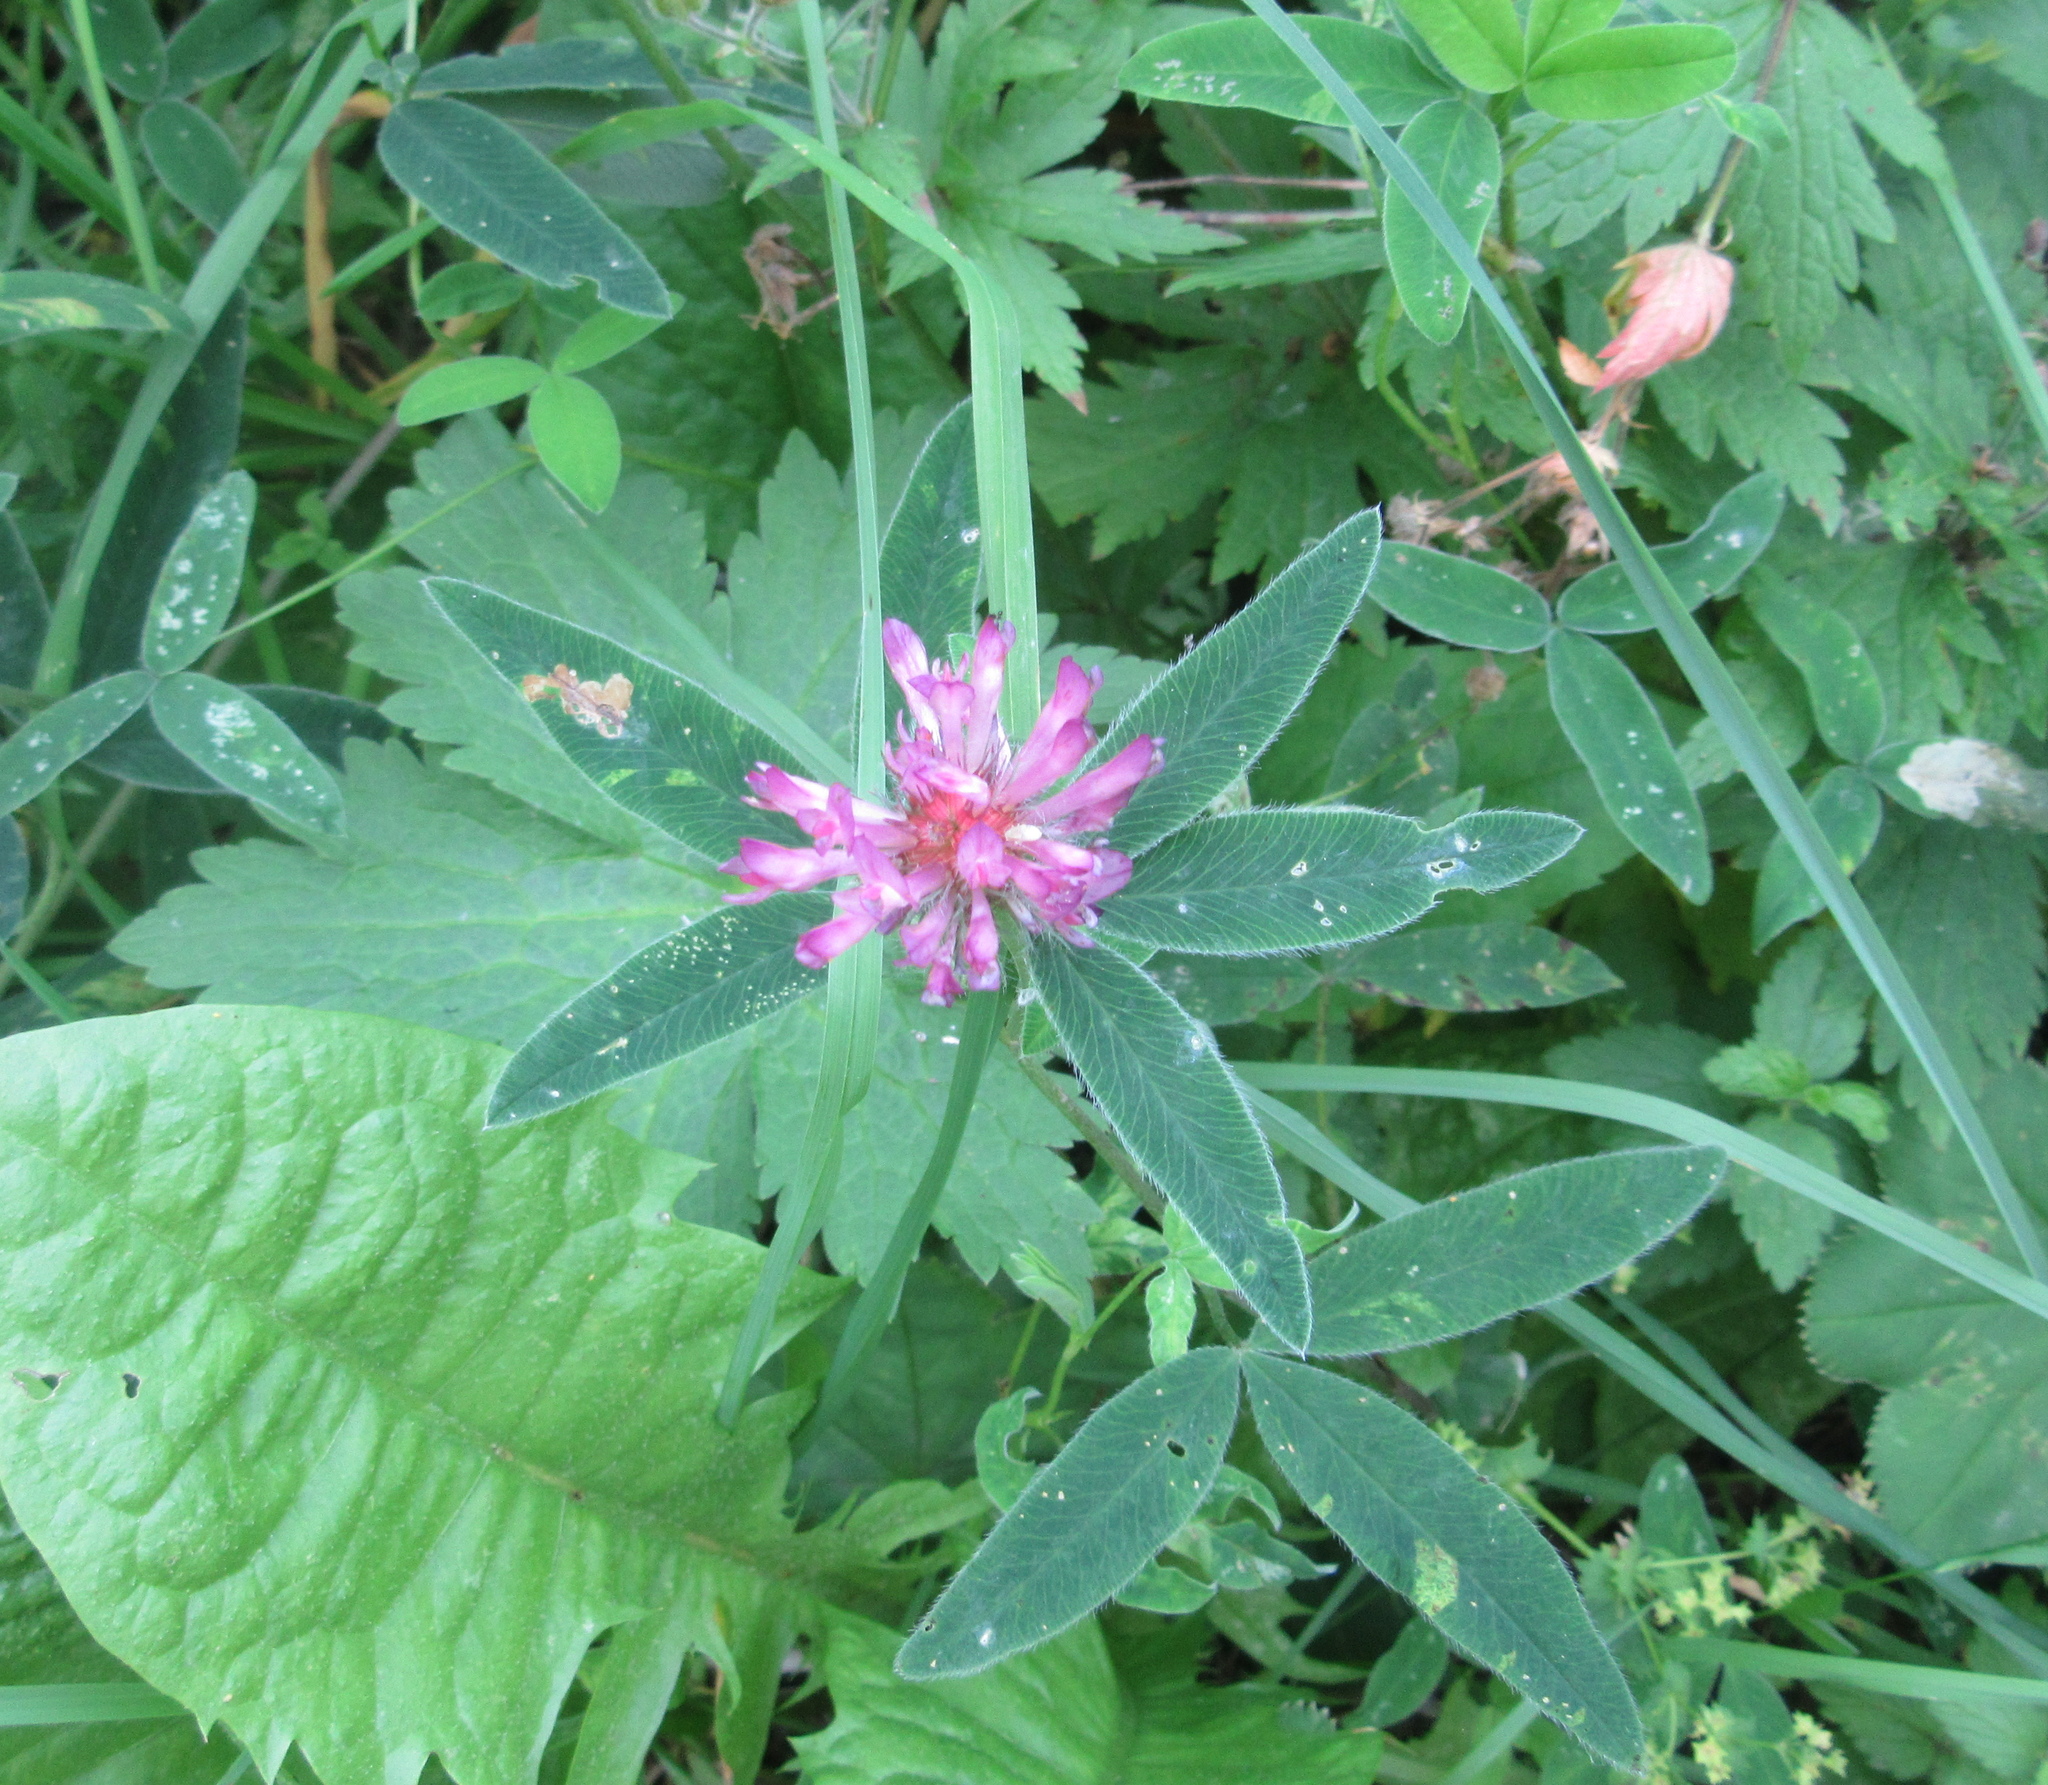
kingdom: Plantae
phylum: Tracheophyta
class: Magnoliopsida
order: Fabales
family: Fabaceae
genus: Trifolium
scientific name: Trifolium medium
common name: Zigzag clover
